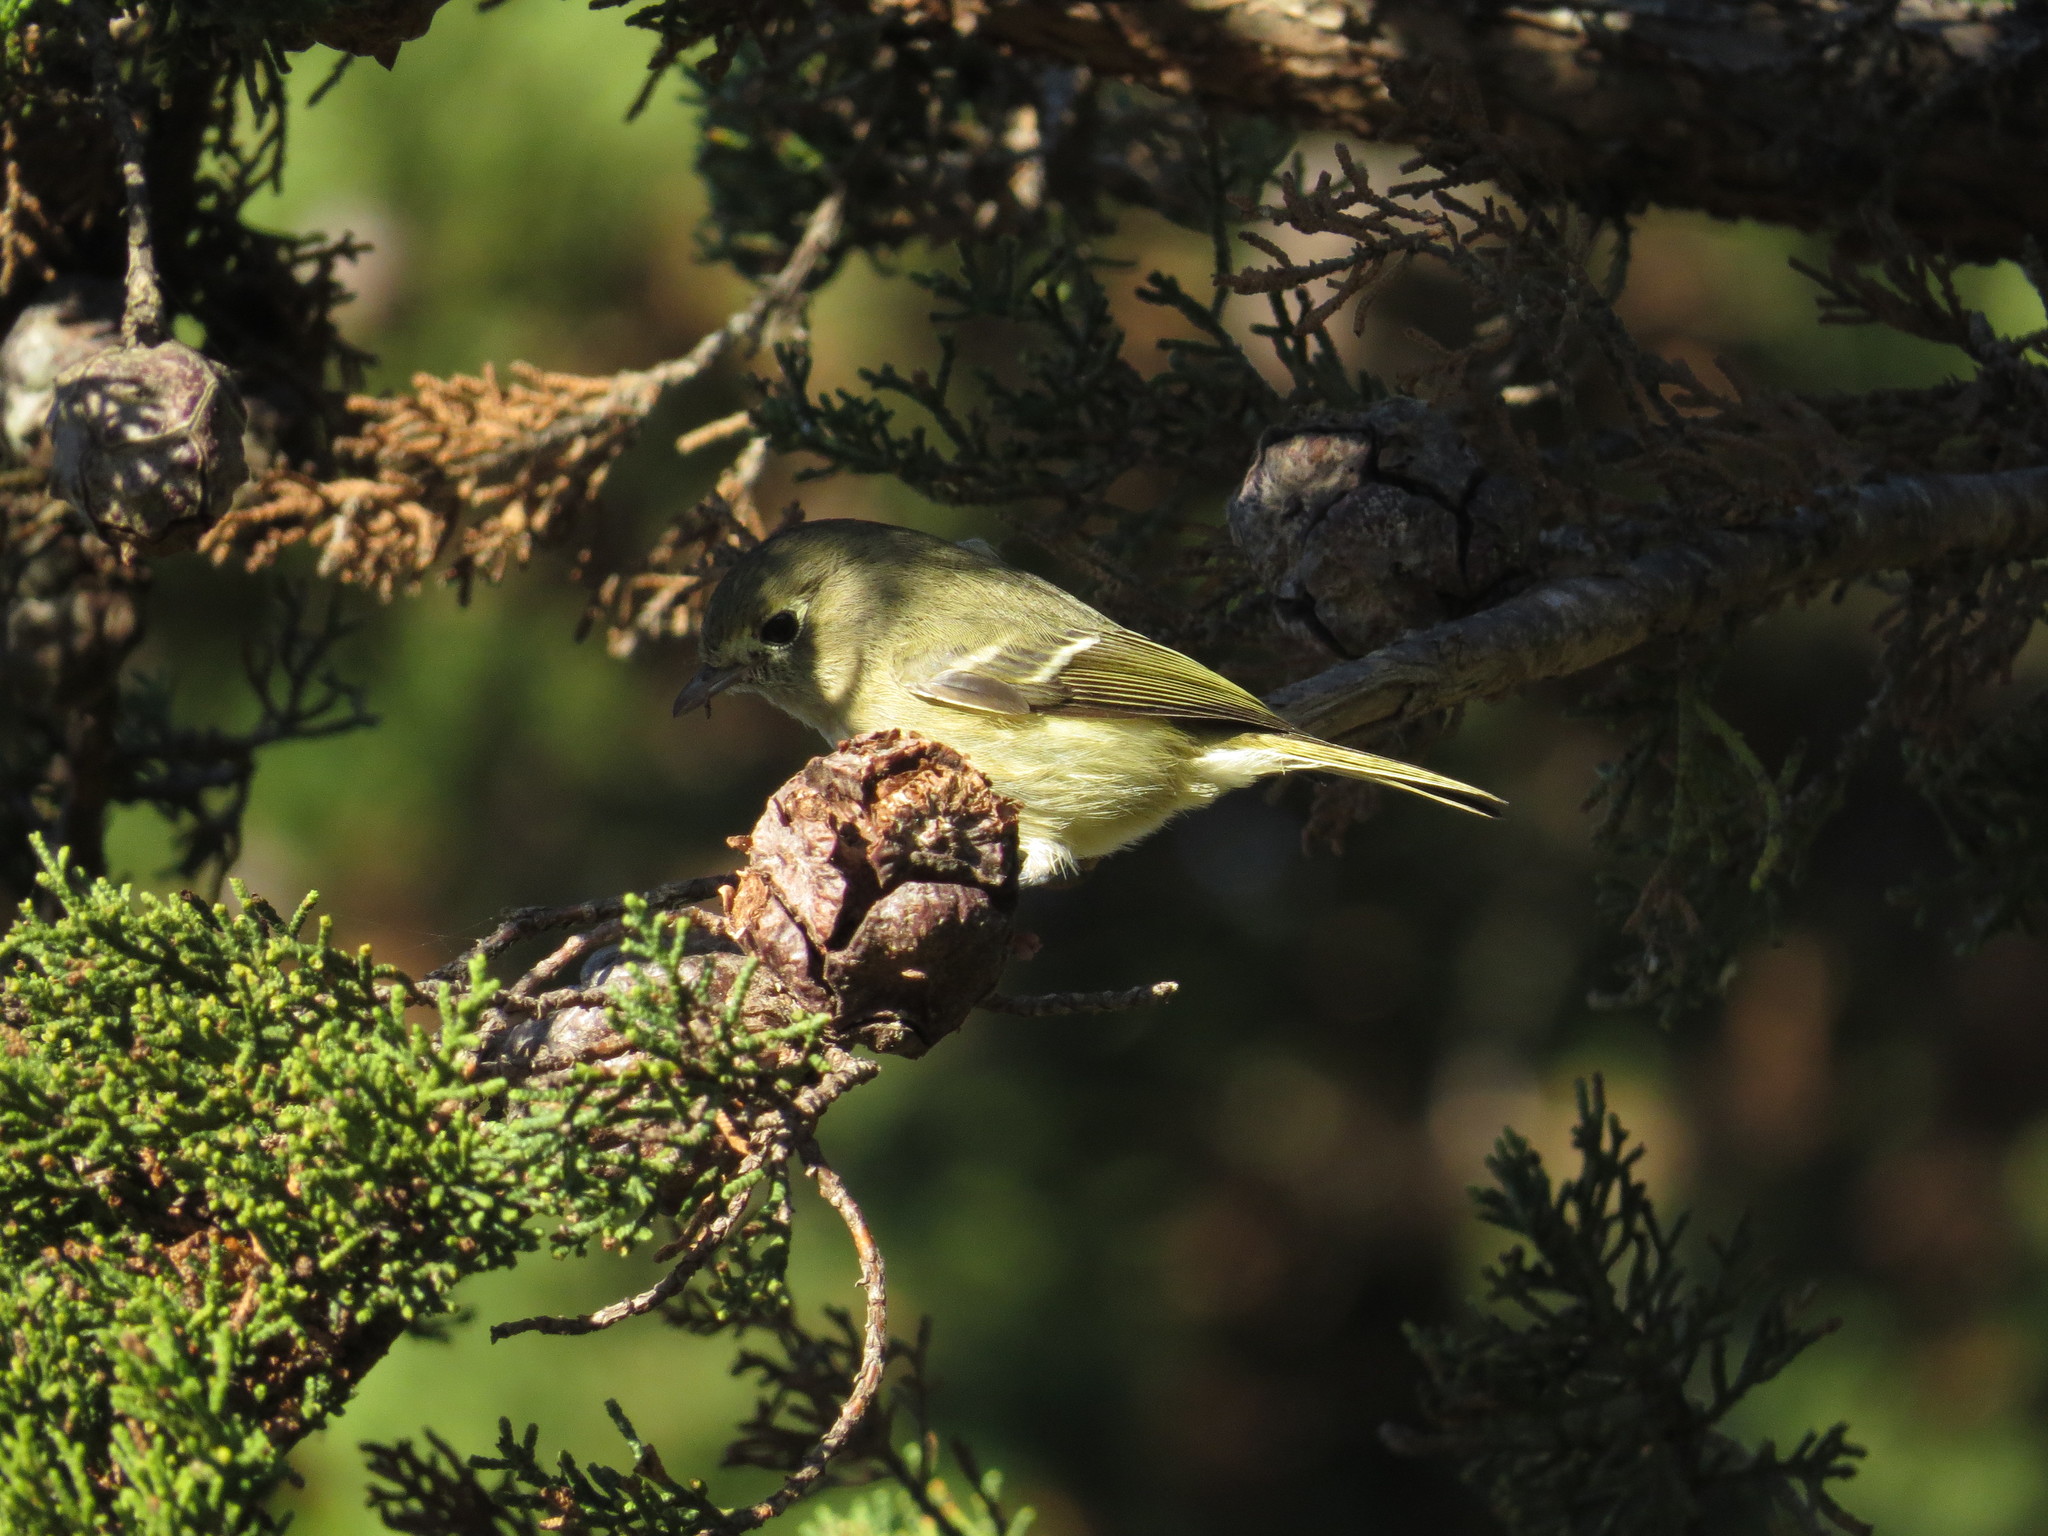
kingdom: Animalia
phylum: Chordata
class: Aves
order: Passeriformes
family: Vireonidae
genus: Vireo
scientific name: Vireo huttoni
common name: Hutton's vireo
